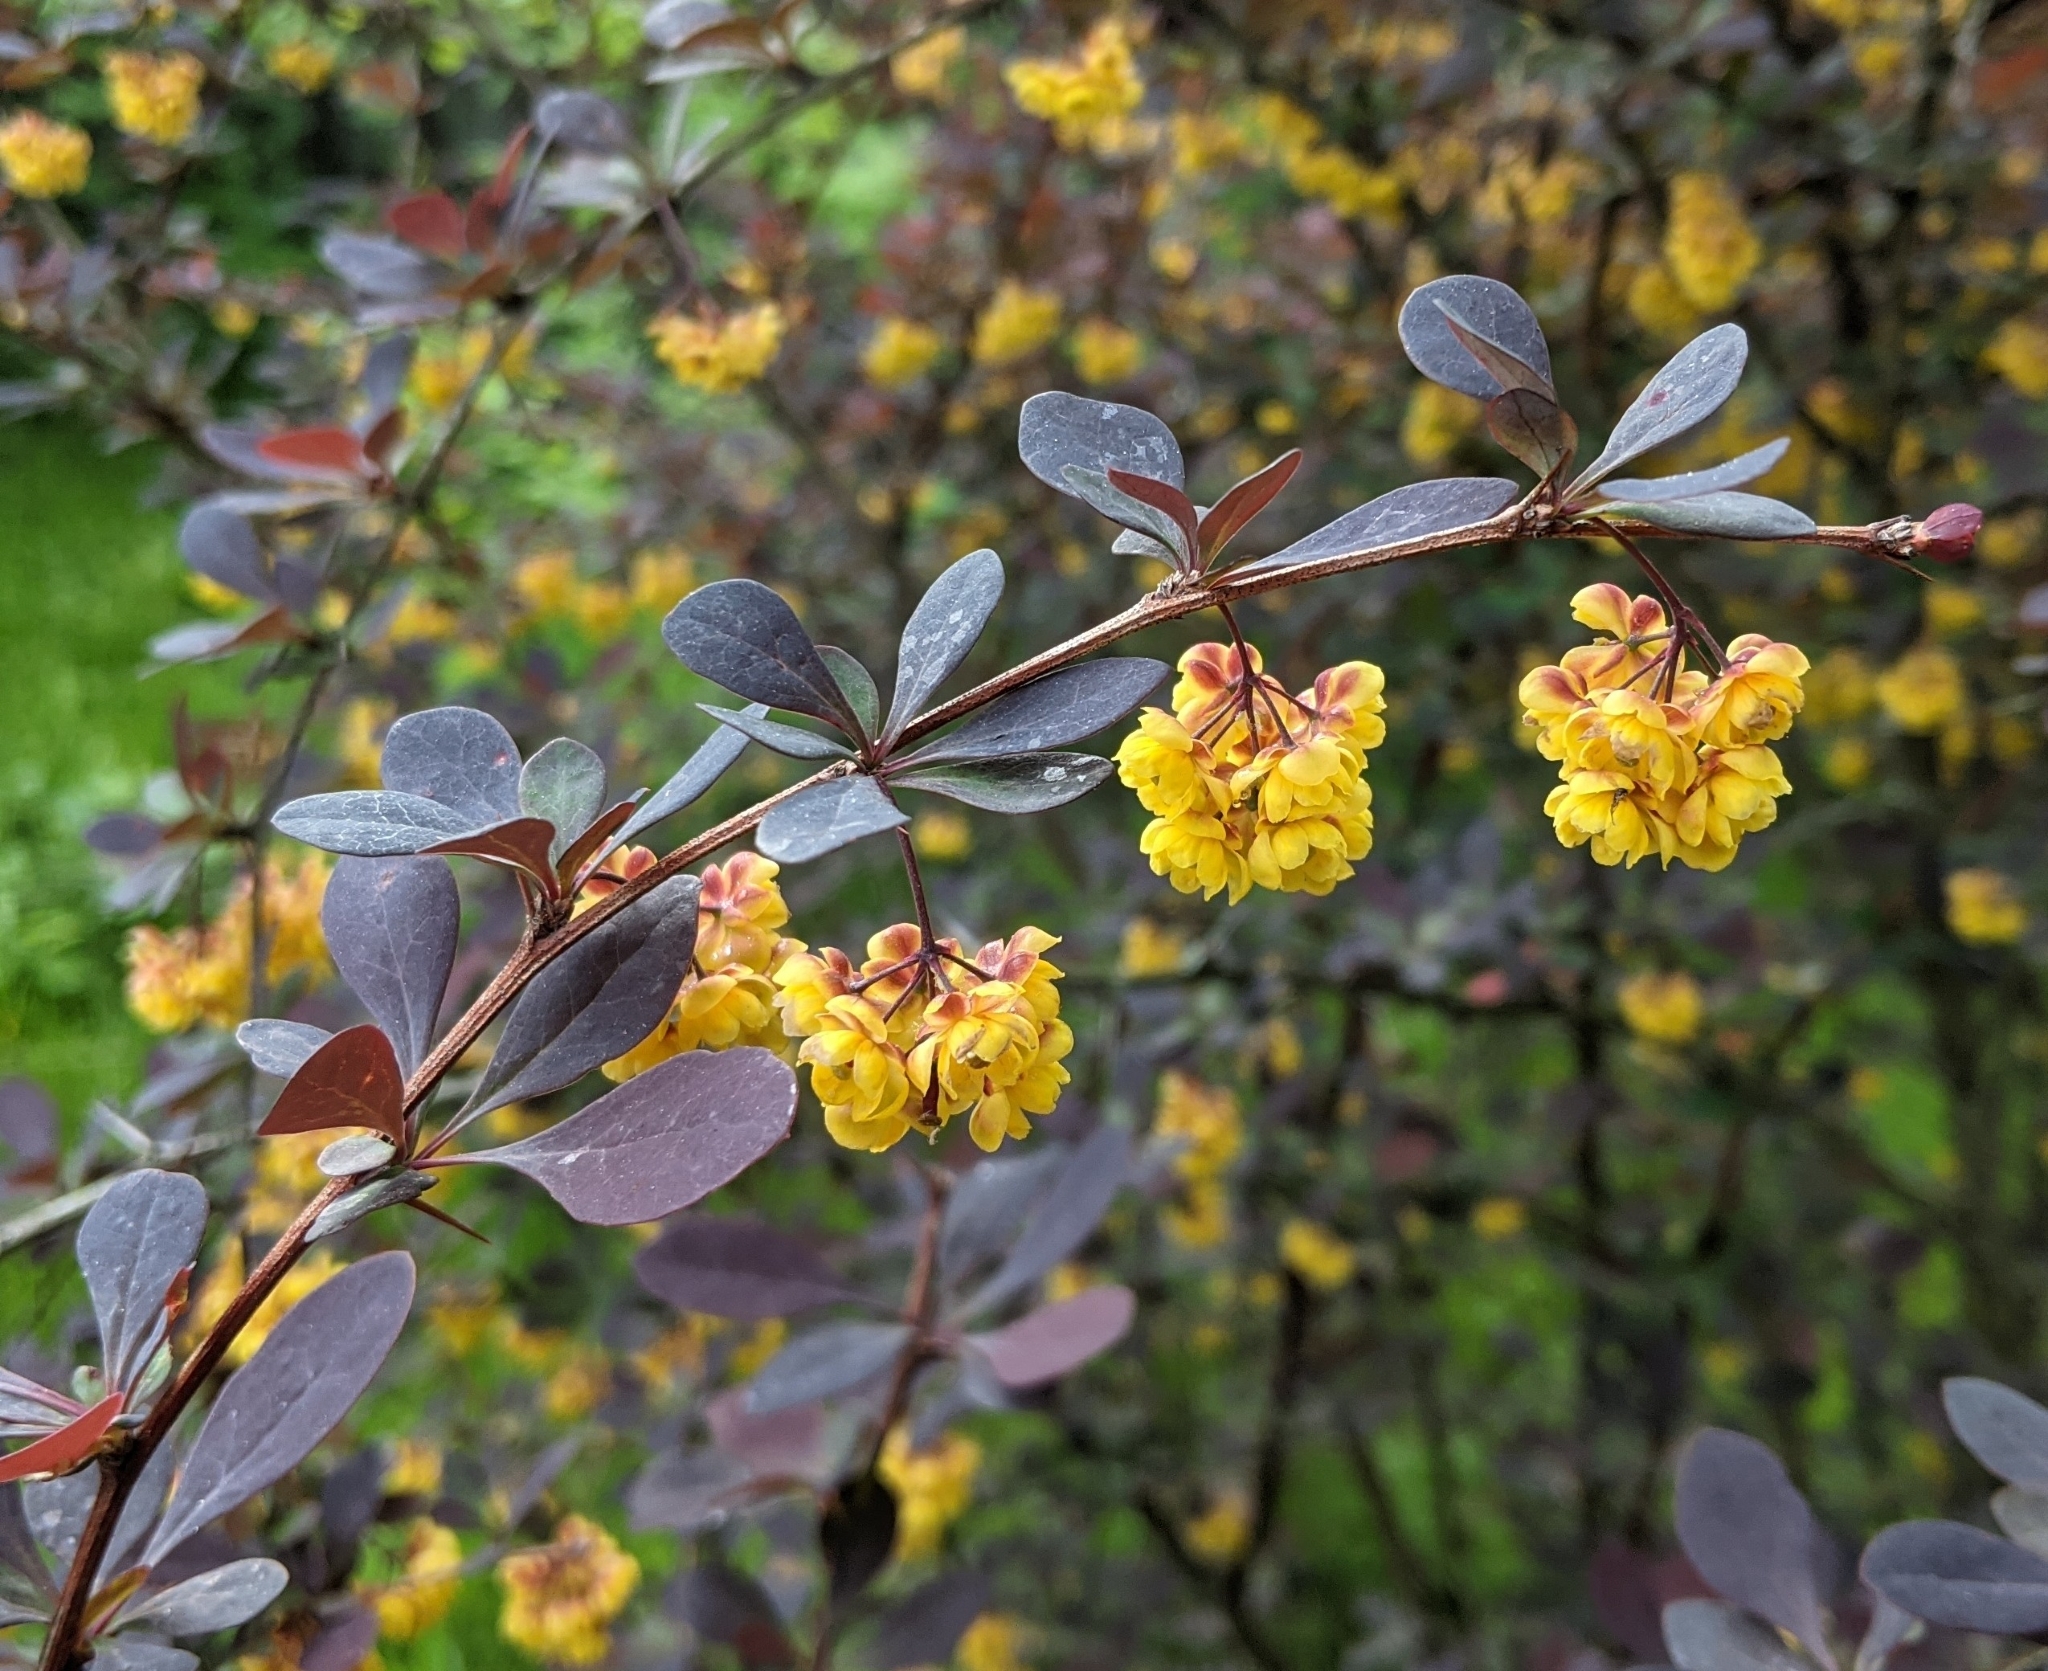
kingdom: Plantae
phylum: Tracheophyta
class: Magnoliopsida
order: Ranunculales
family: Berberidaceae
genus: Berberis
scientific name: Berberis thunbergii
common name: Japanese barberry
